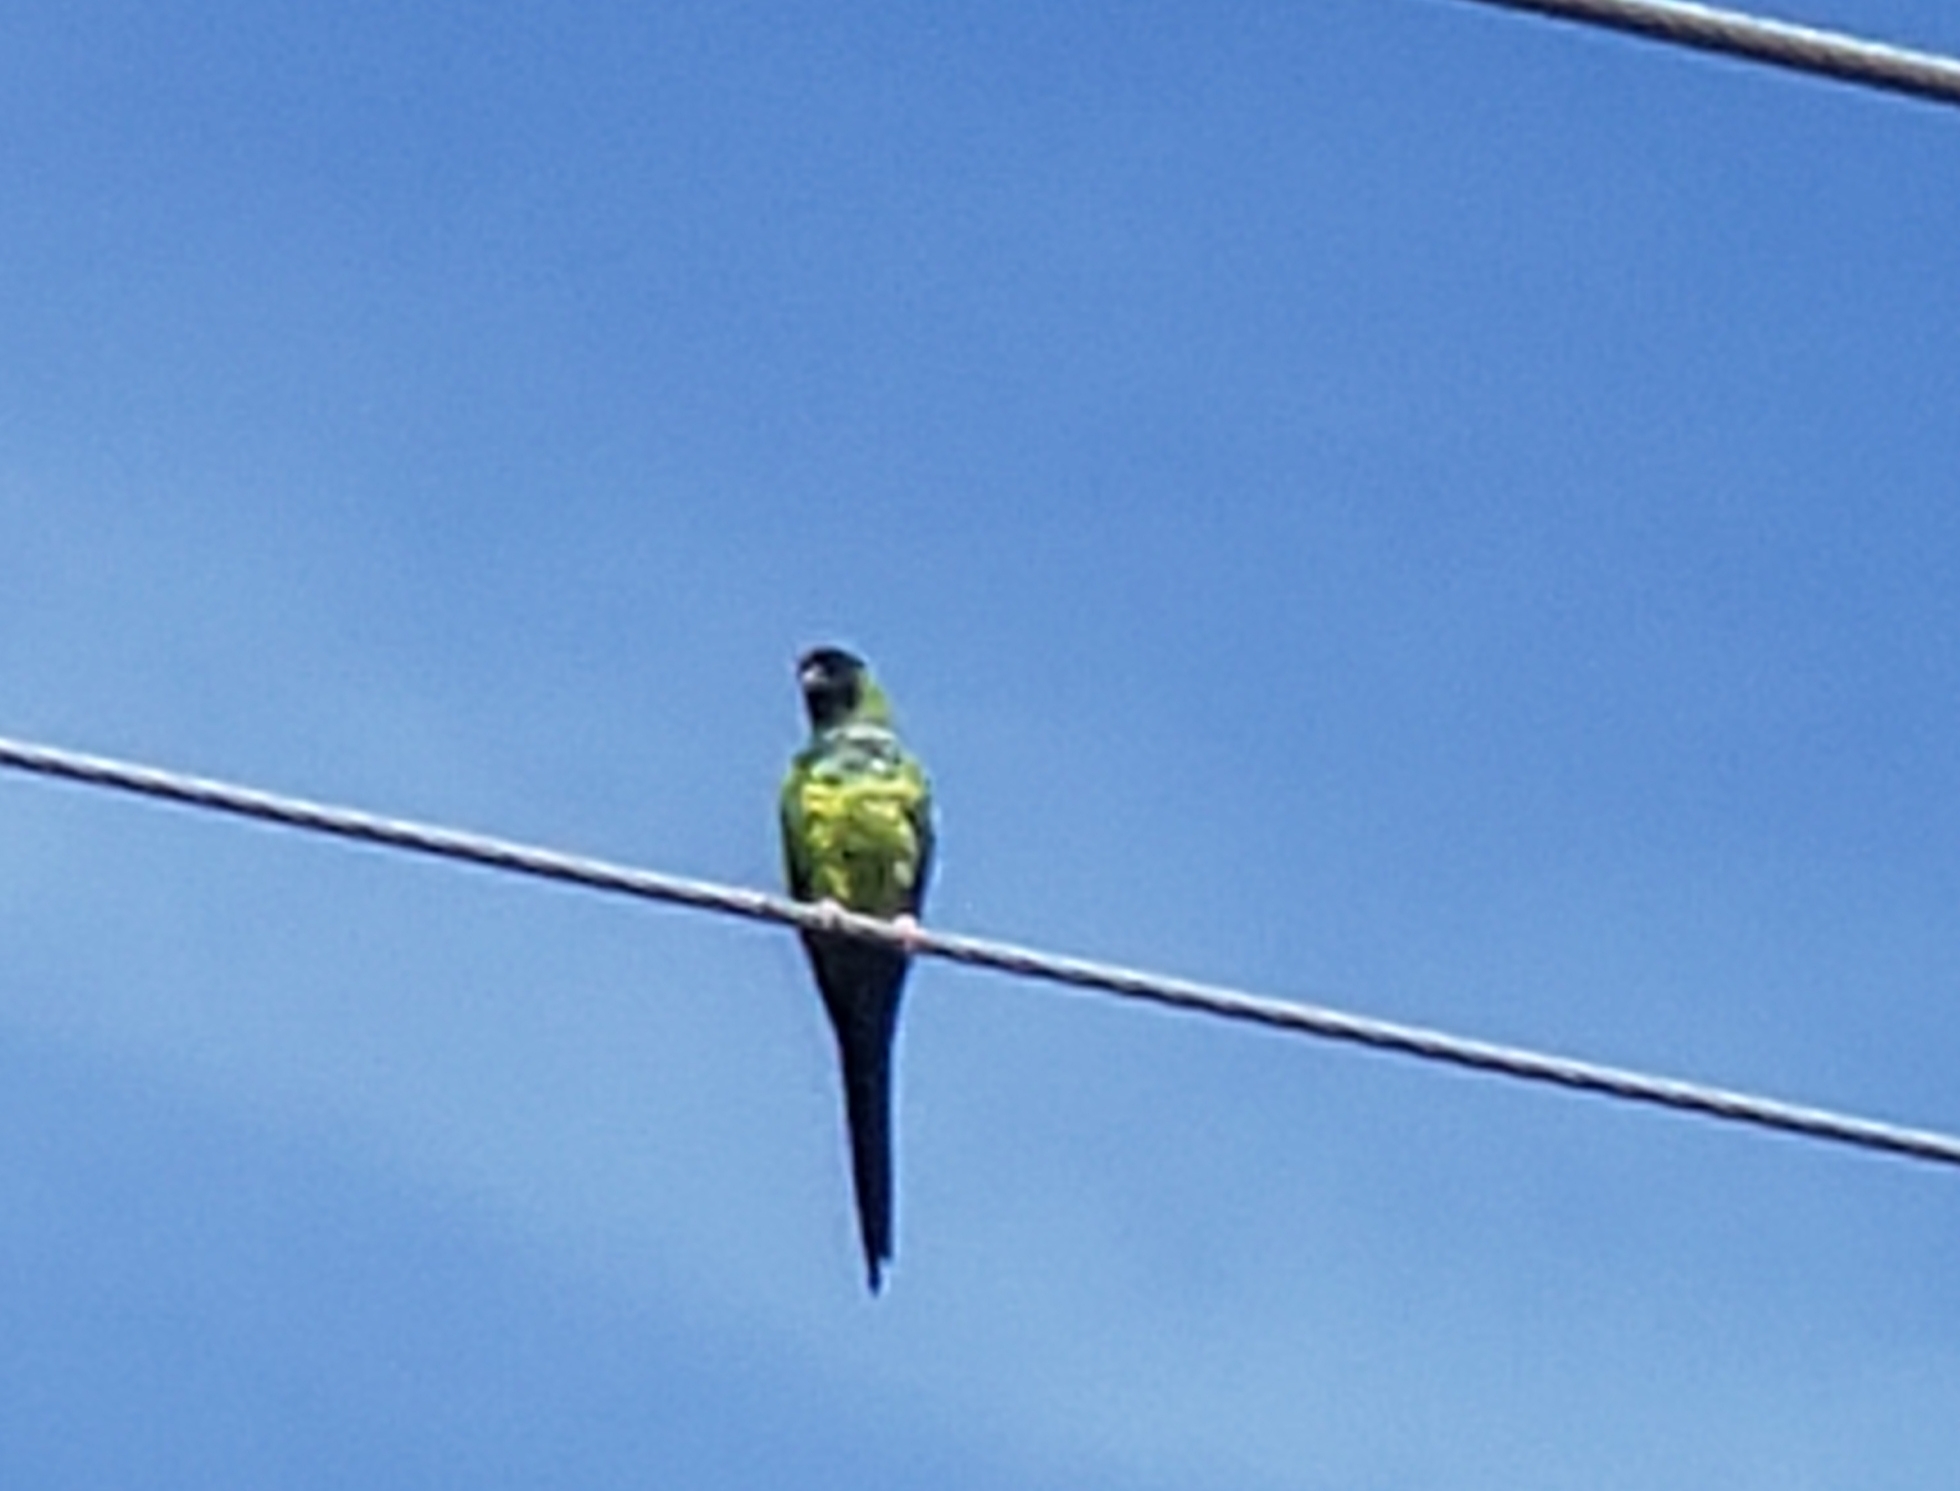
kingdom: Animalia
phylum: Chordata
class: Aves
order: Psittaciformes
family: Psittacidae
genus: Nandayus
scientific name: Nandayus nenday
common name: Nanday parakeet
